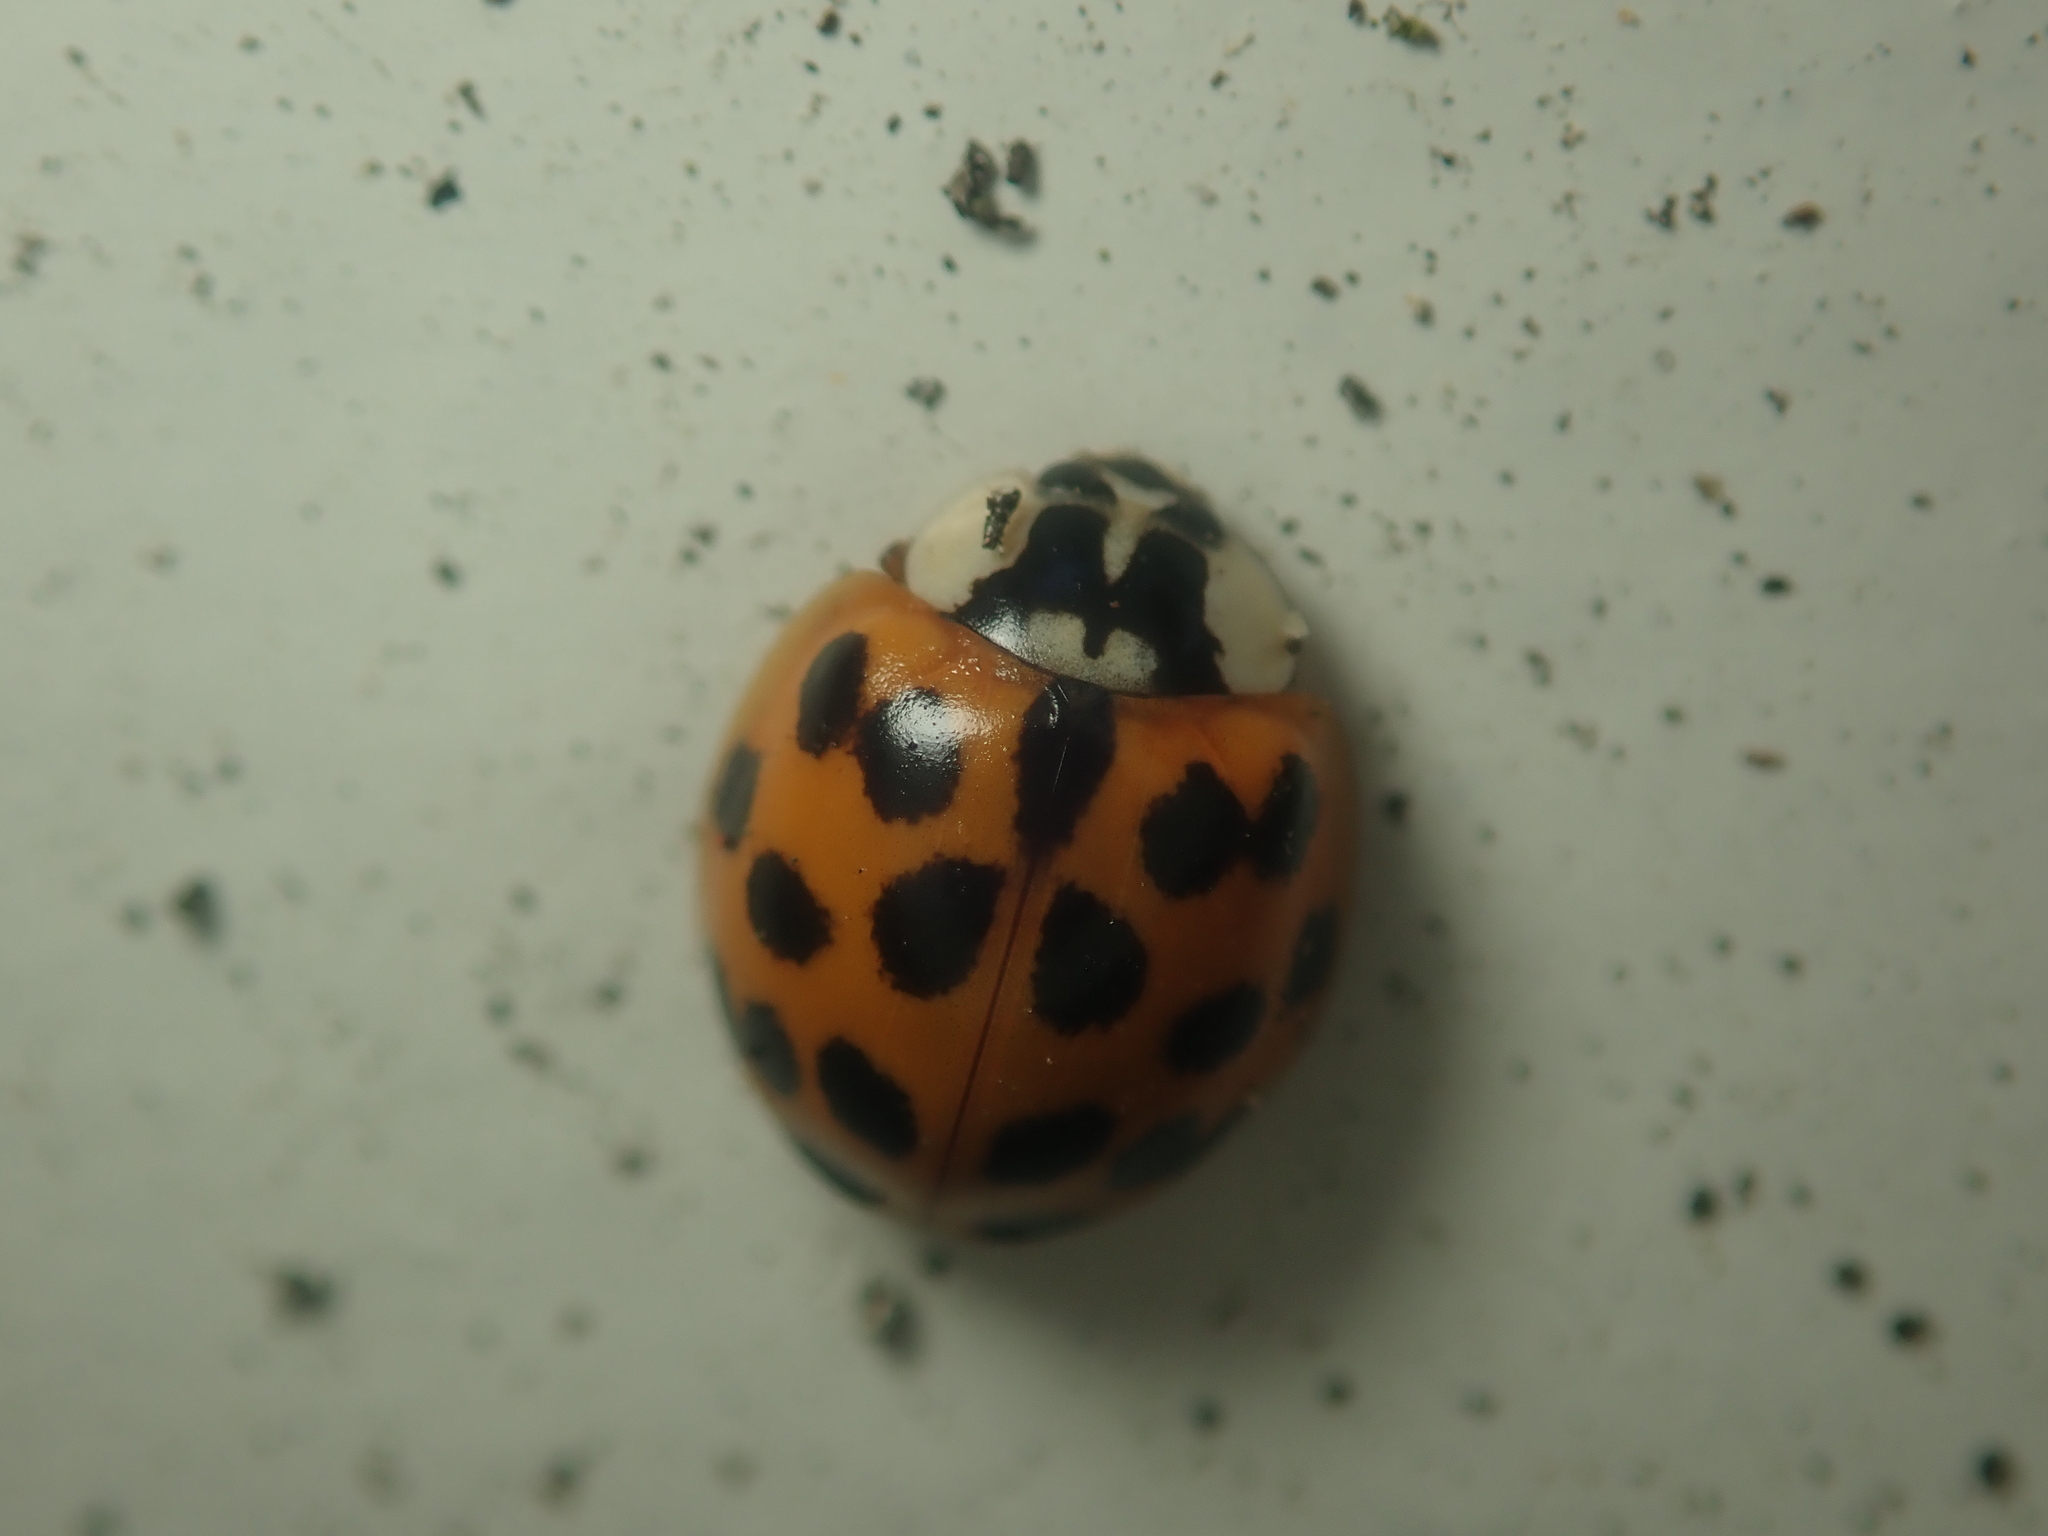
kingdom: Animalia
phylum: Arthropoda
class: Insecta
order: Coleoptera
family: Coccinellidae
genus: Harmonia
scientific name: Harmonia axyridis
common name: Harlequin ladybird
